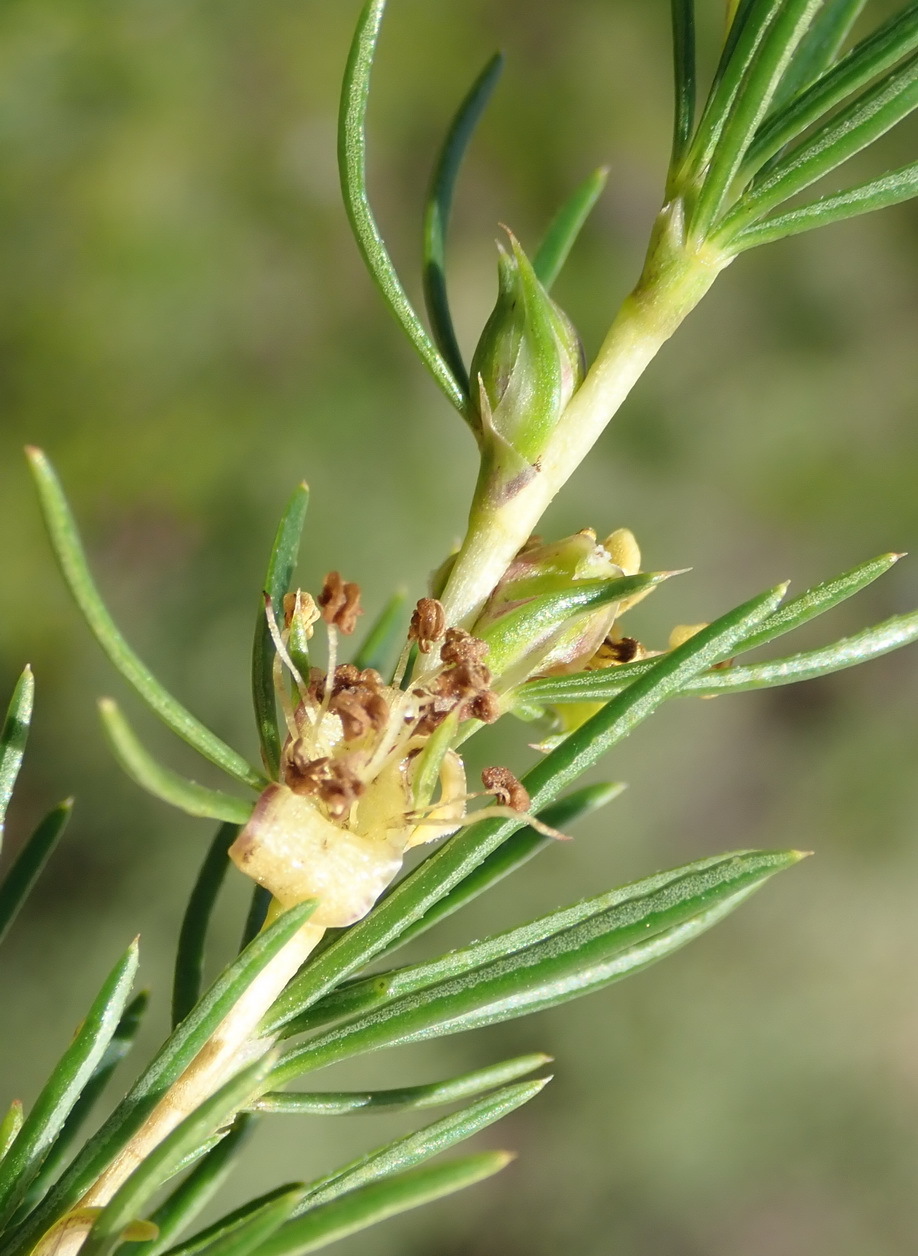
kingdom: Plantae
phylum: Tracheophyta
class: Magnoliopsida
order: Rosales
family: Rosaceae
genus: Cliffortia
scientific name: Cliffortia burchellii
